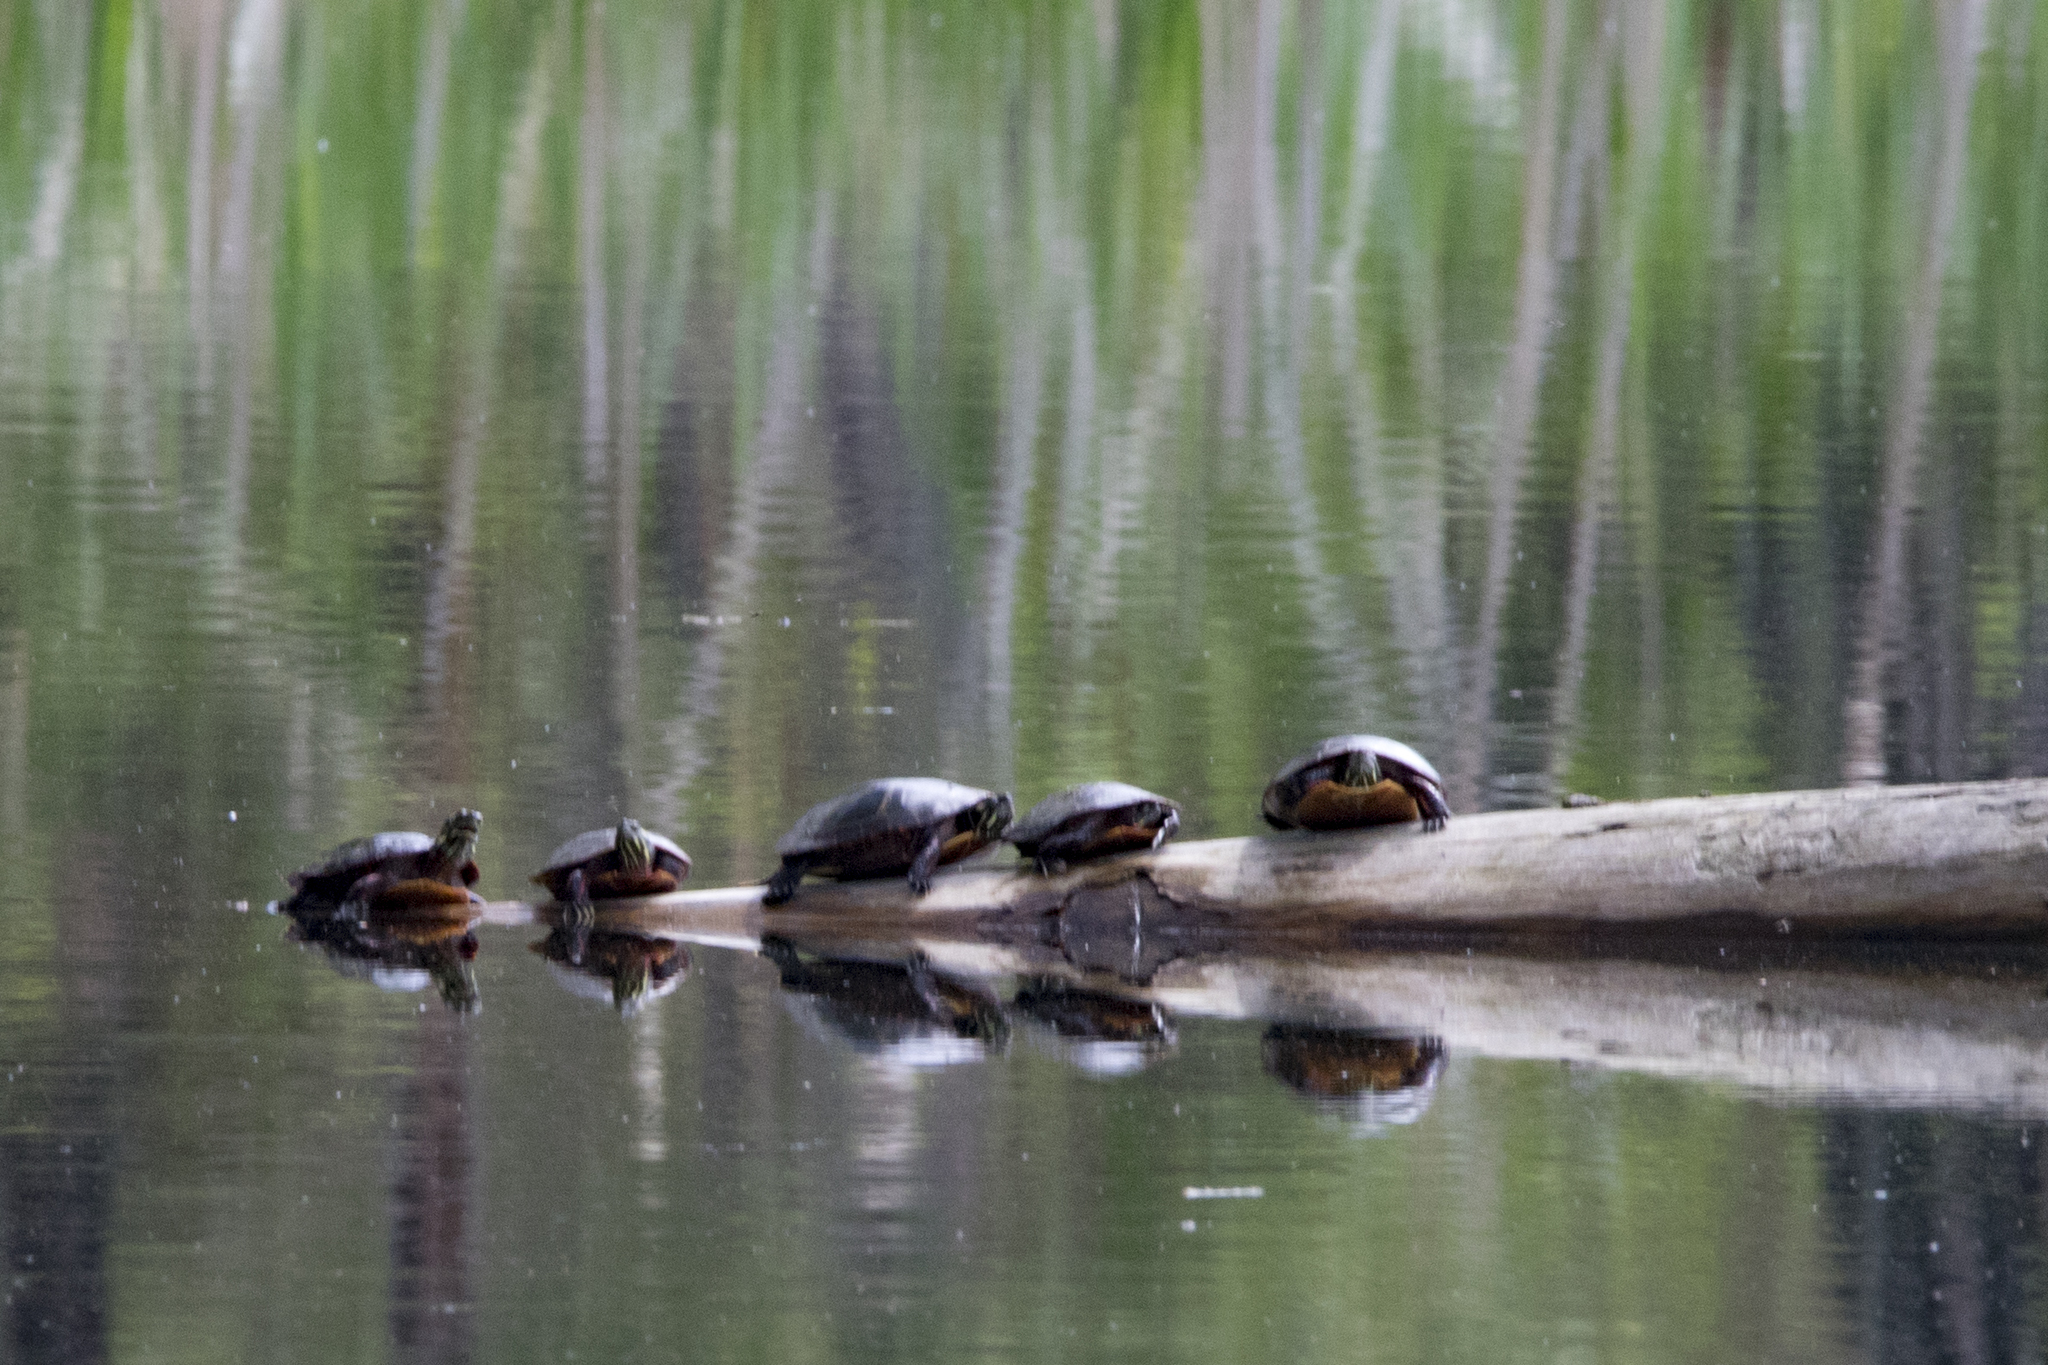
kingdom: Animalia
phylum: Chordata
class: Testudines
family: Emydidae
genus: Chrysemys
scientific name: Chrysemys picta
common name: Painted turtle
